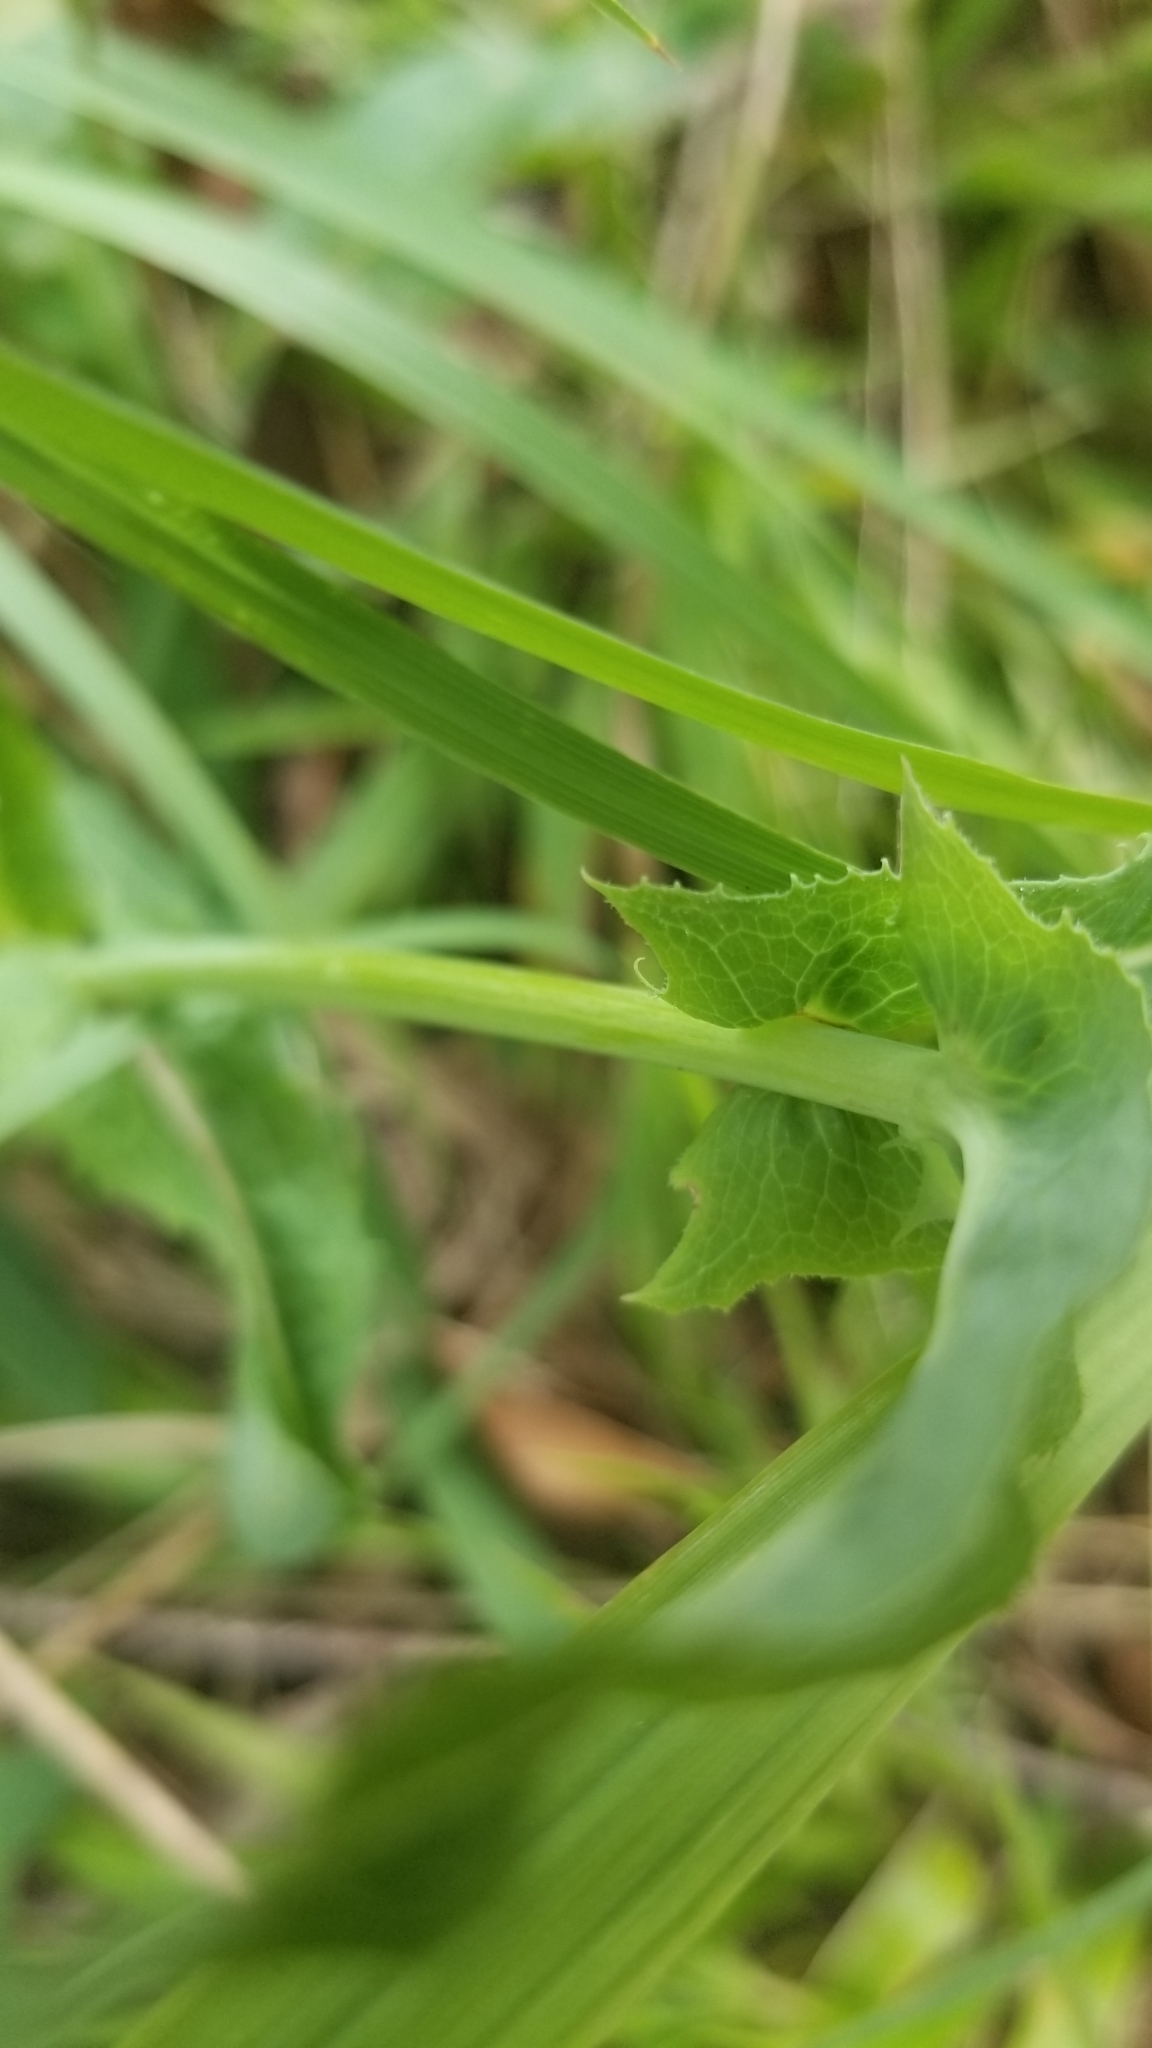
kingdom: Plantae
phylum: Tracheophyta
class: Magnoliopsida
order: Asterales
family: Asteraceae
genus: Lactuca
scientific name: Lactuca canadensis
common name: Canada lettuce
